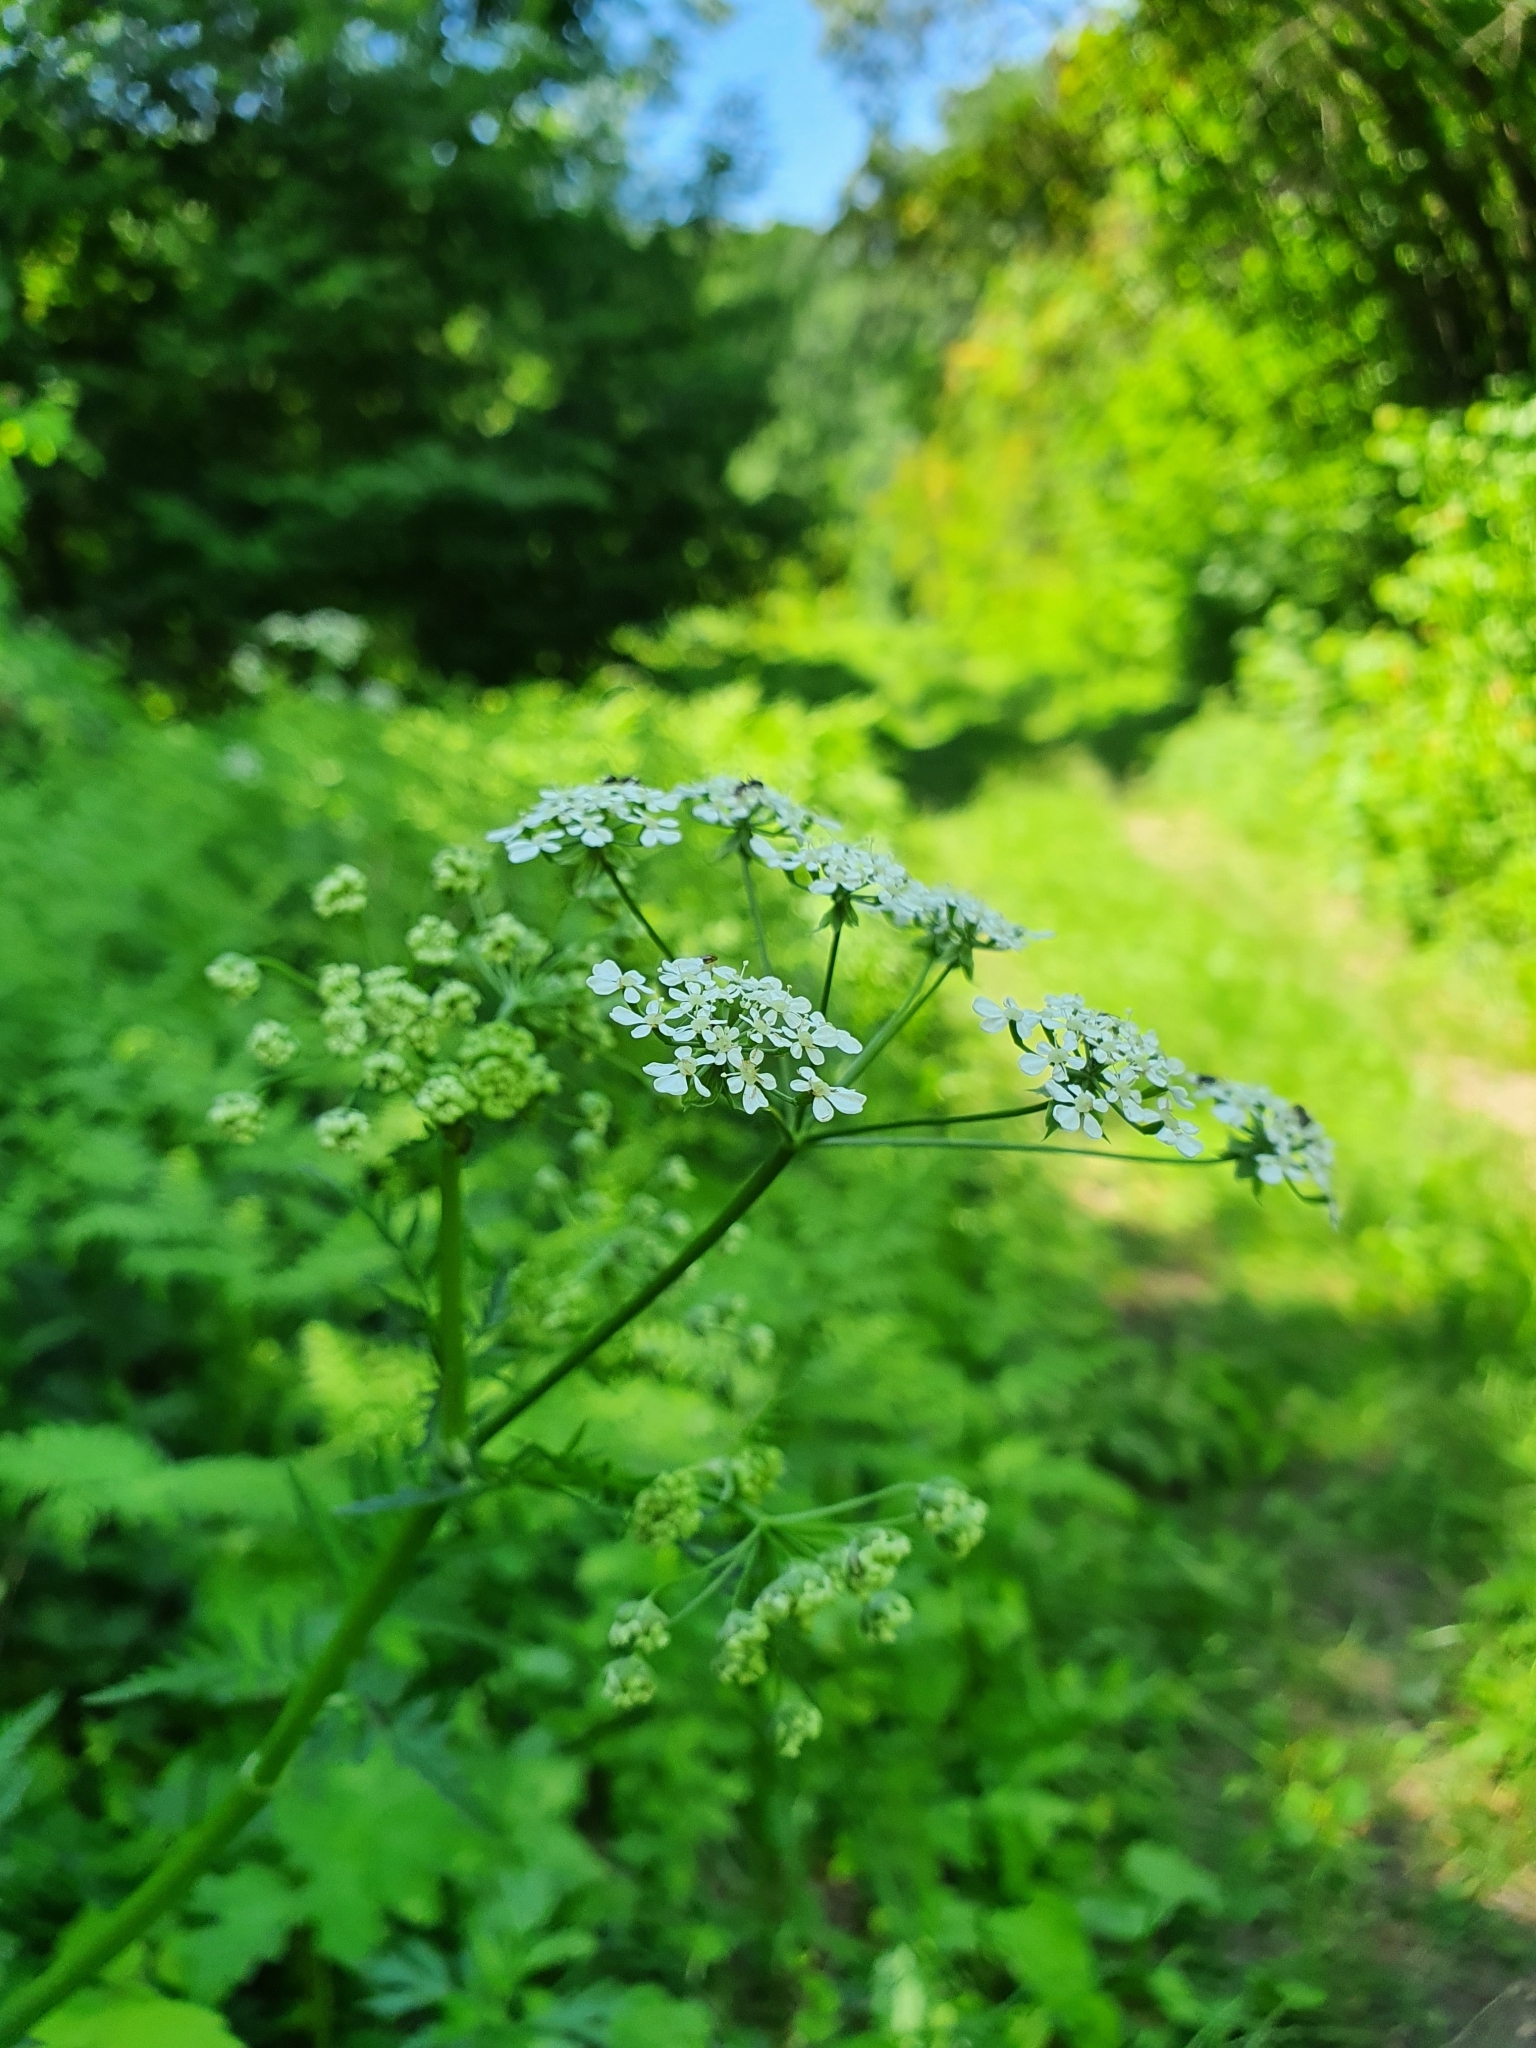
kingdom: Plantae
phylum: Tracheophyta
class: Magnoliopsida
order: Apiales
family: Apiaceae
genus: Anthriscus
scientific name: Anthriscus sylvestris
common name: Cow parsley
